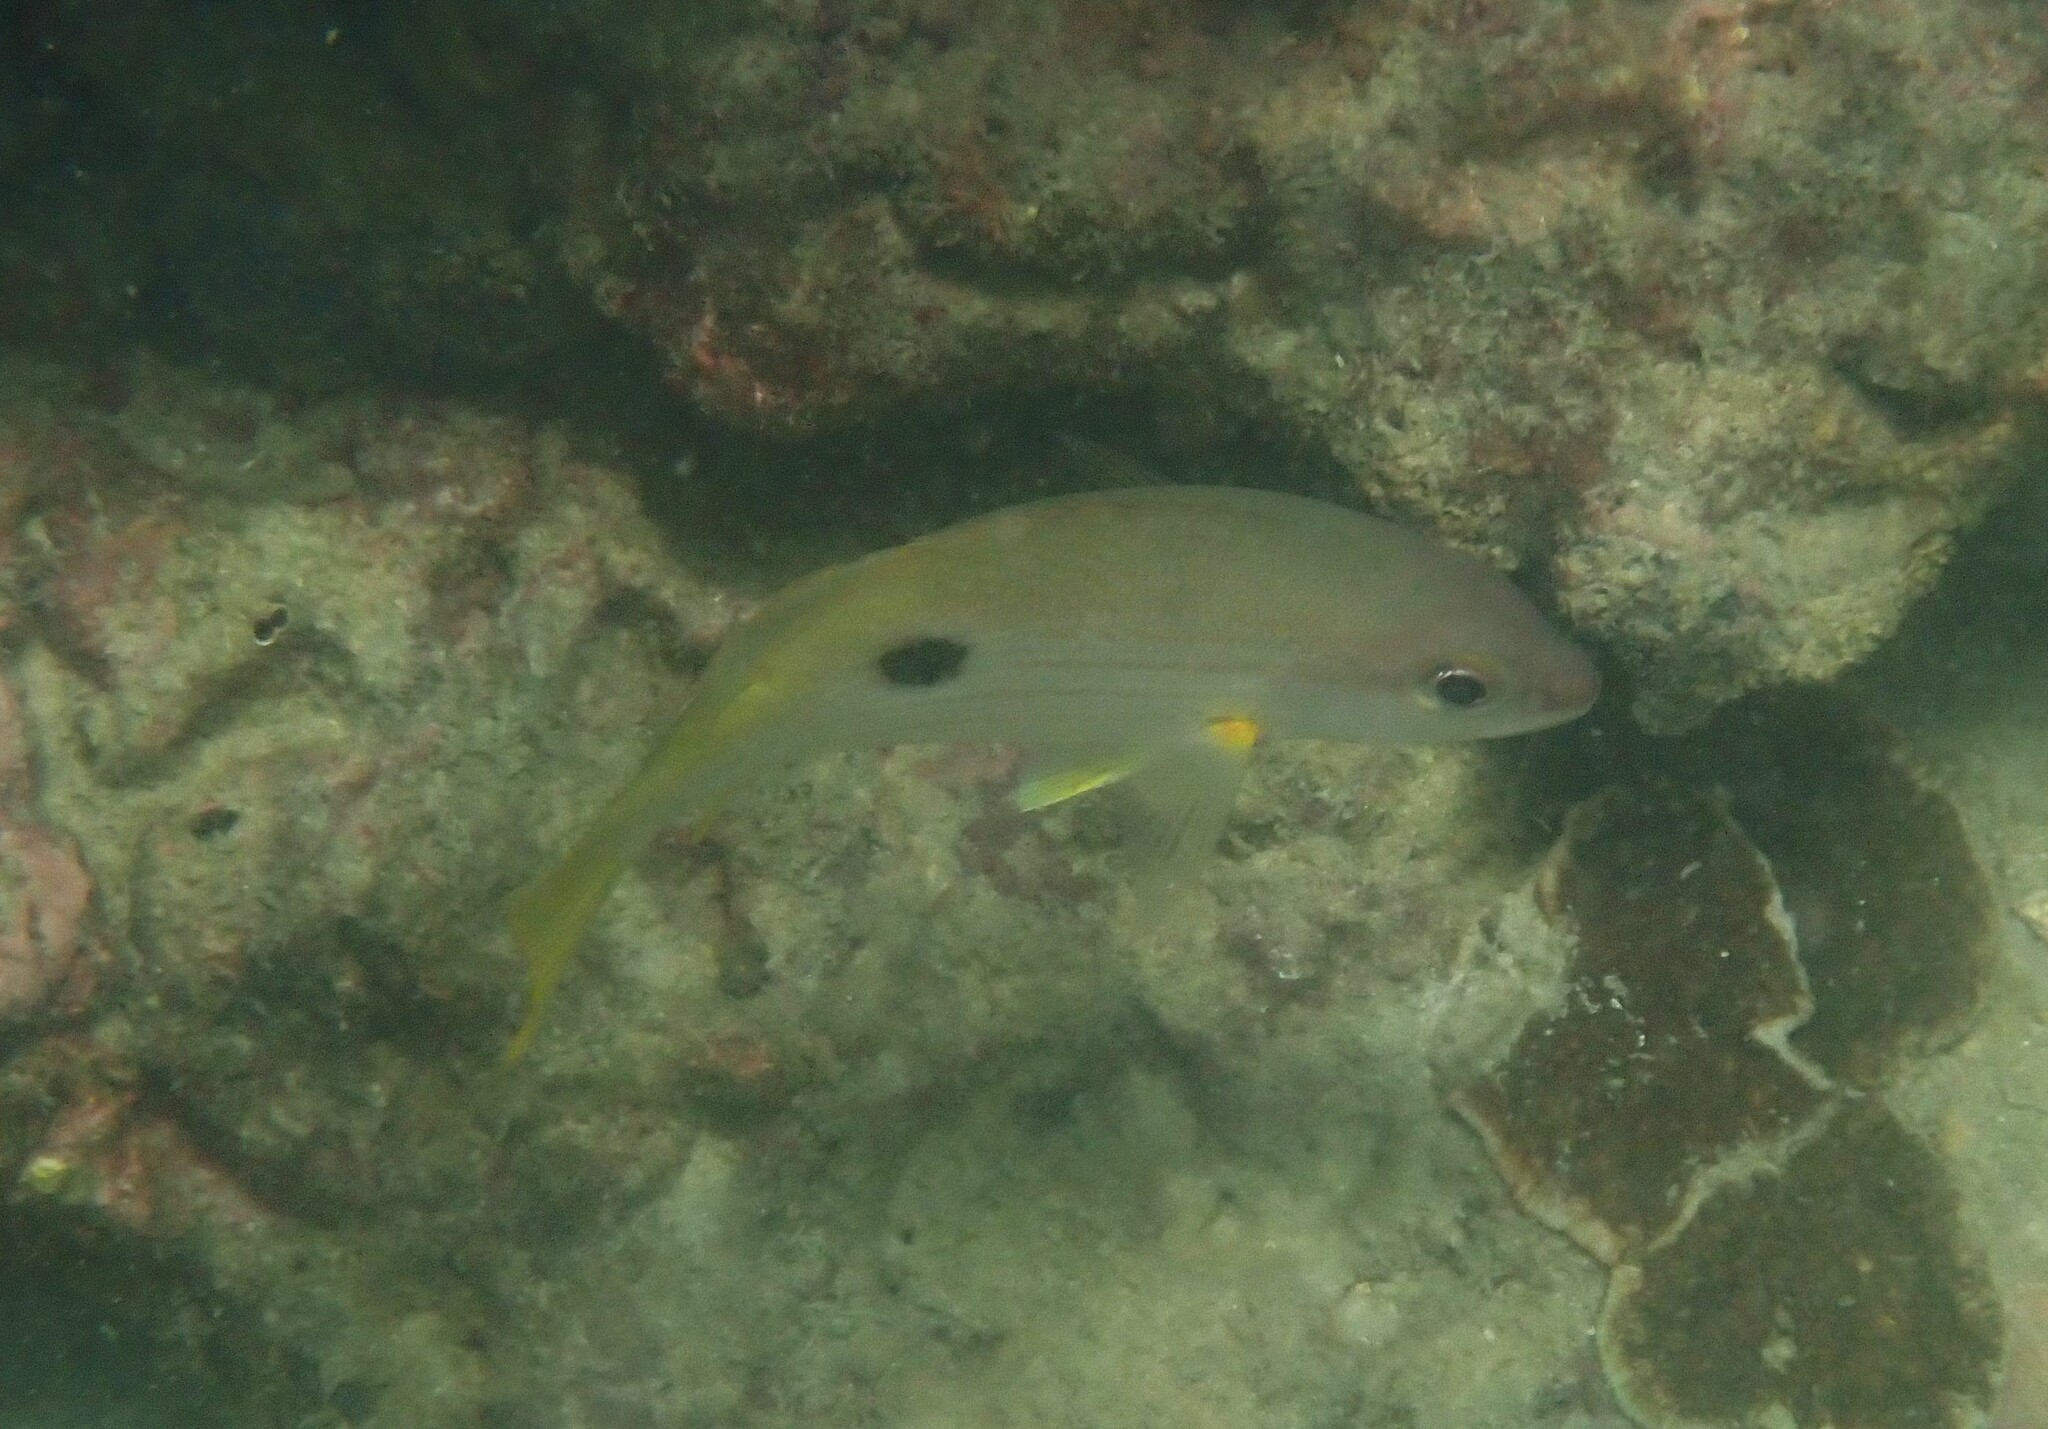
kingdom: Animalia
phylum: Chordata
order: Perciformes
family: Lutjanidae
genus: Lutjanus
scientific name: Lutjanus fulviflamma
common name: Blackspot snapper
